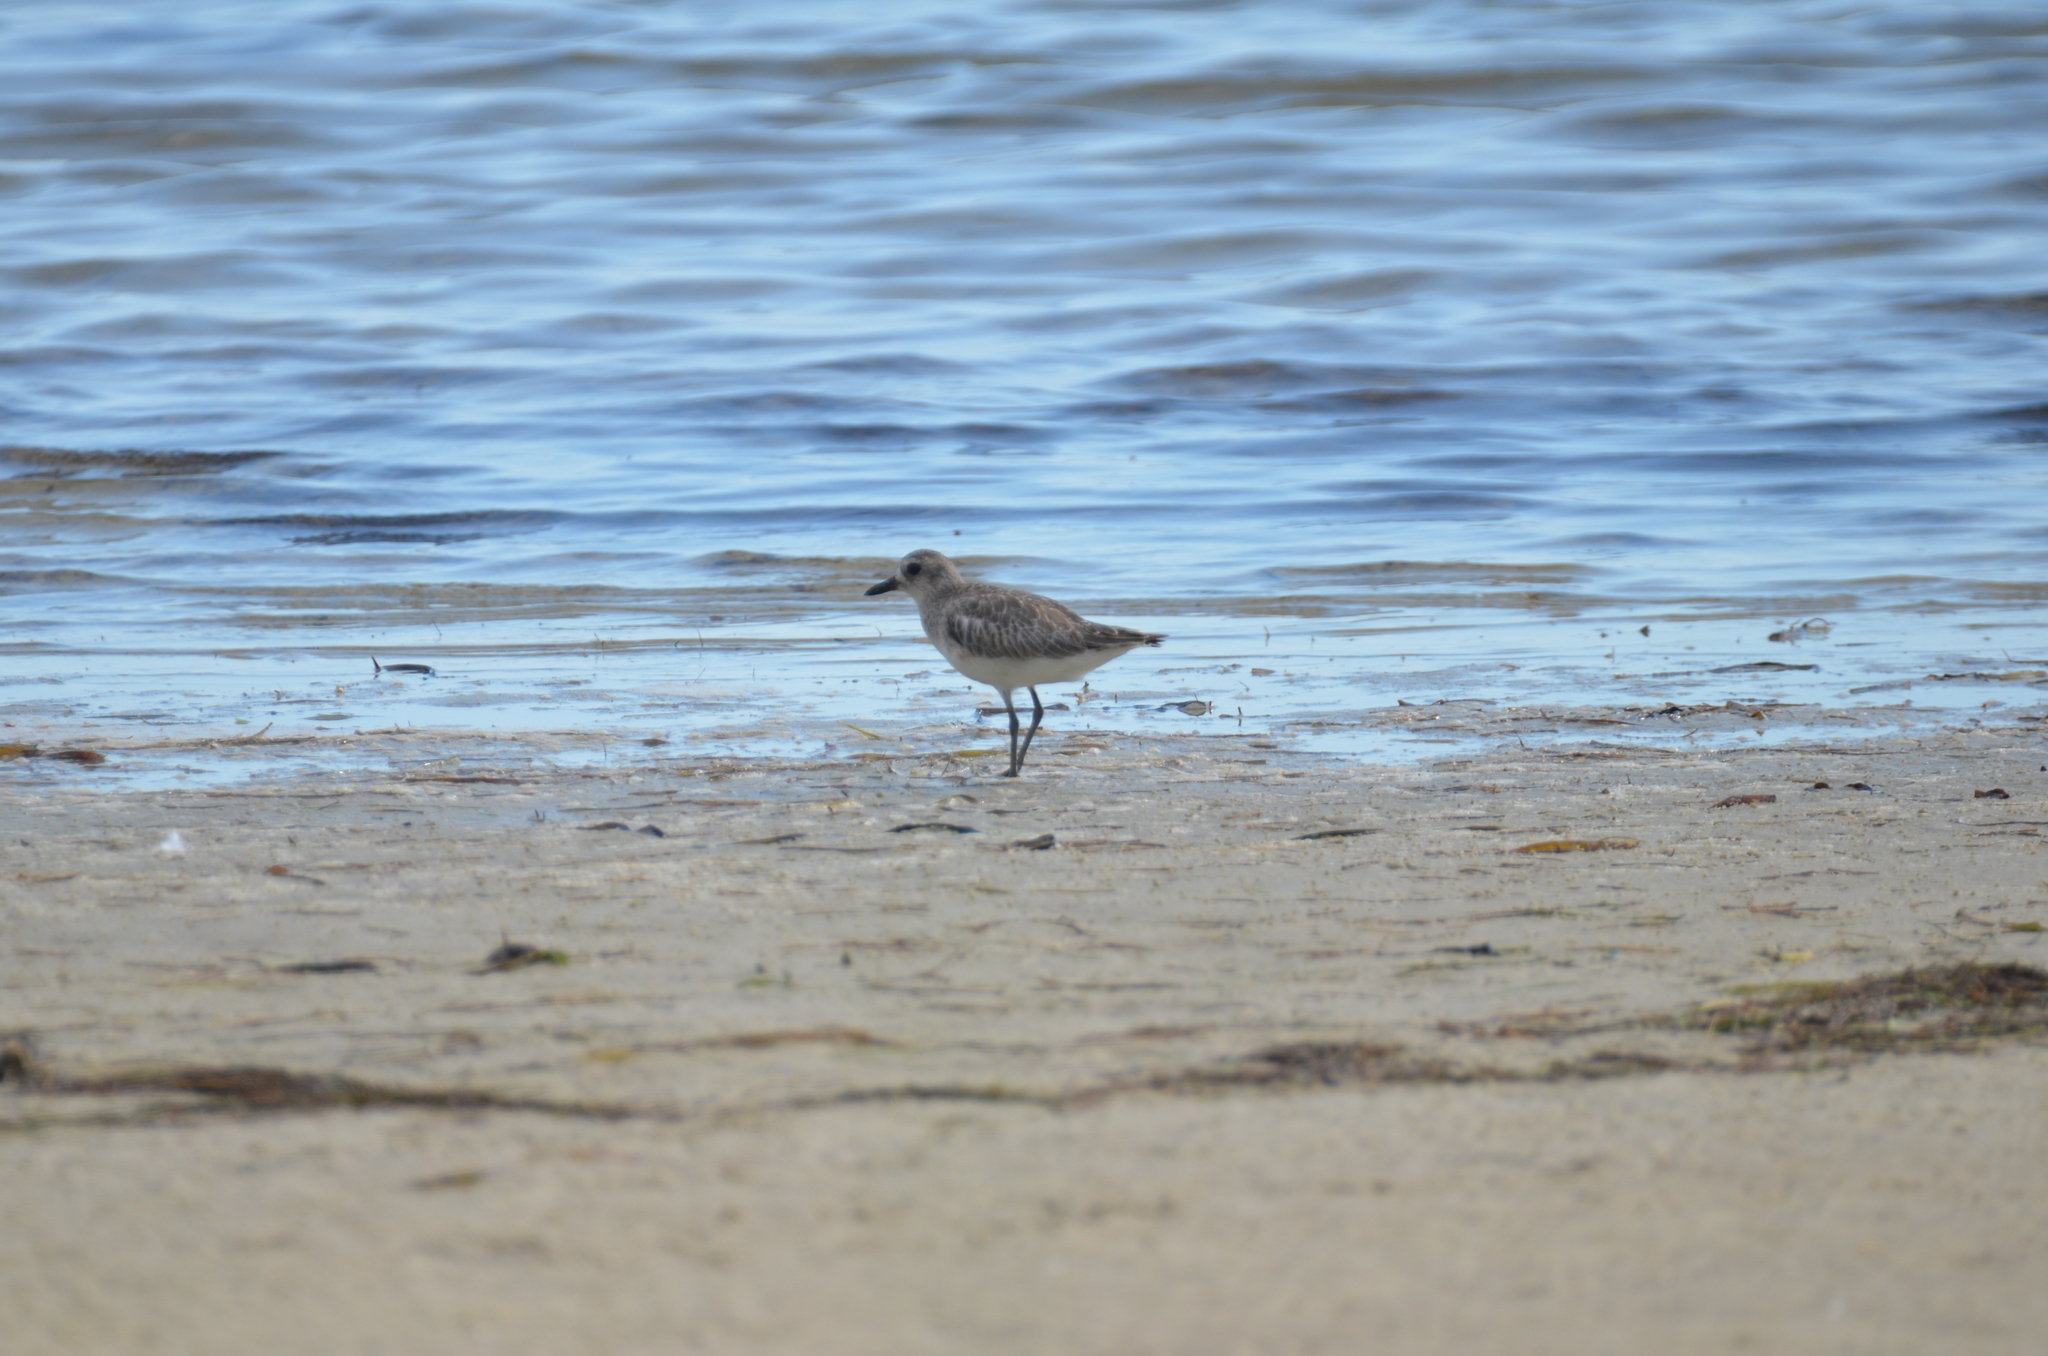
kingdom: Animalia
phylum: Chordata
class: Aves
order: Charadriiformes
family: Charadriidae
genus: Pluvialis
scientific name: Pluvialis squatarola
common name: Grey plover
